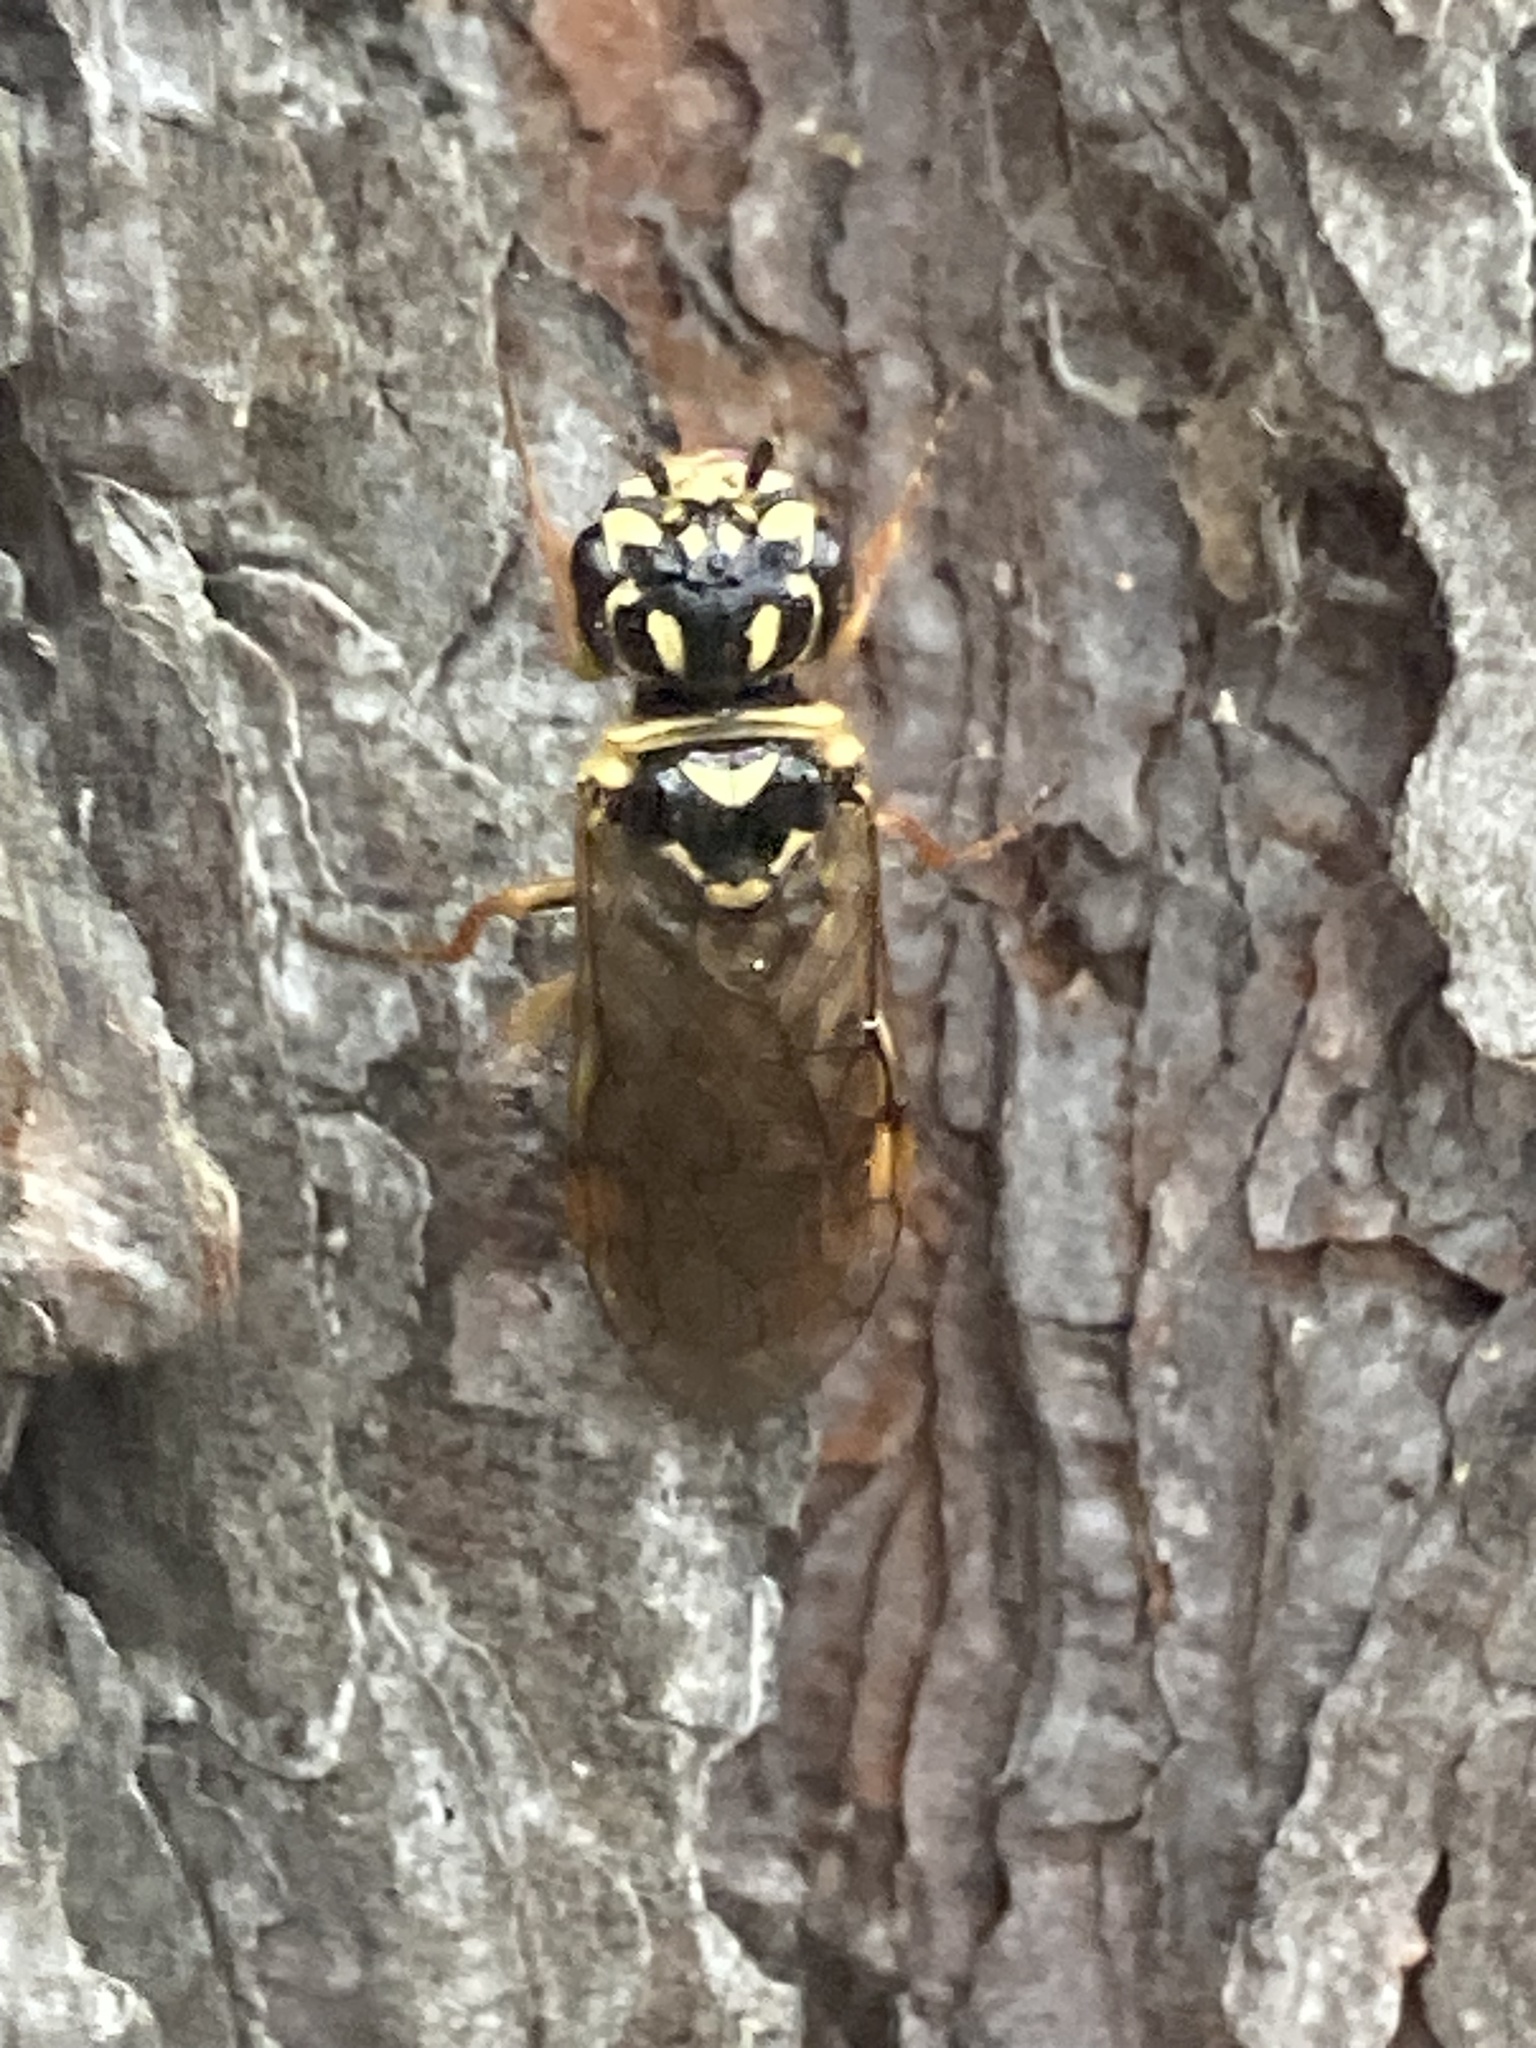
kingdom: Animalia
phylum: Arthropoda
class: Insecta
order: Hymenoptera
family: Pamphiliidae
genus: Acantholyda
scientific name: Acantholyda posticalis
